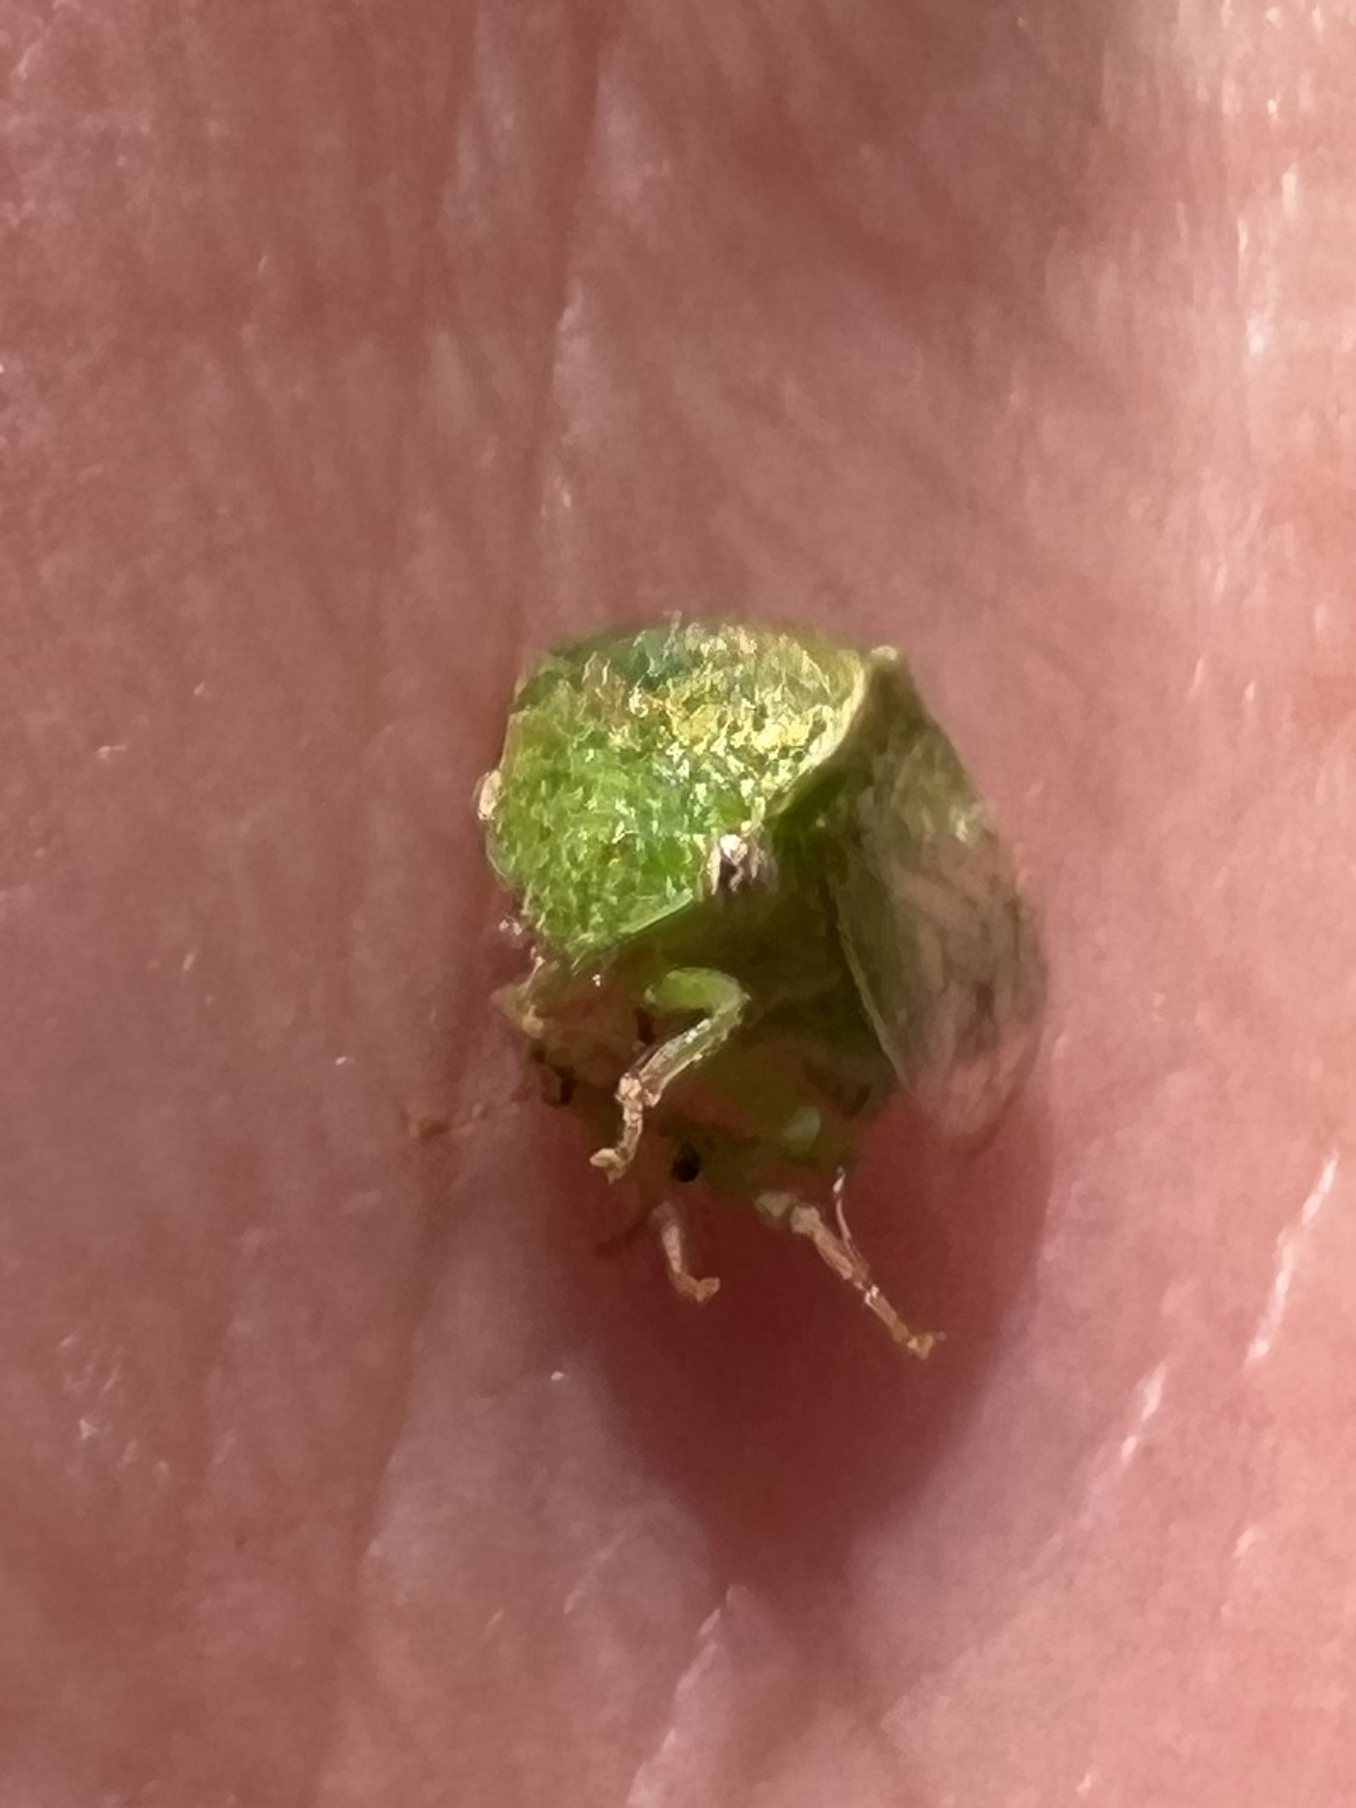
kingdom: Animalia
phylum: Arthropoda
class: Insecta
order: Hemiptera
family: Membracidae
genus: Spissistilus
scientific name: Spissistilus festina
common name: Membracid bug
